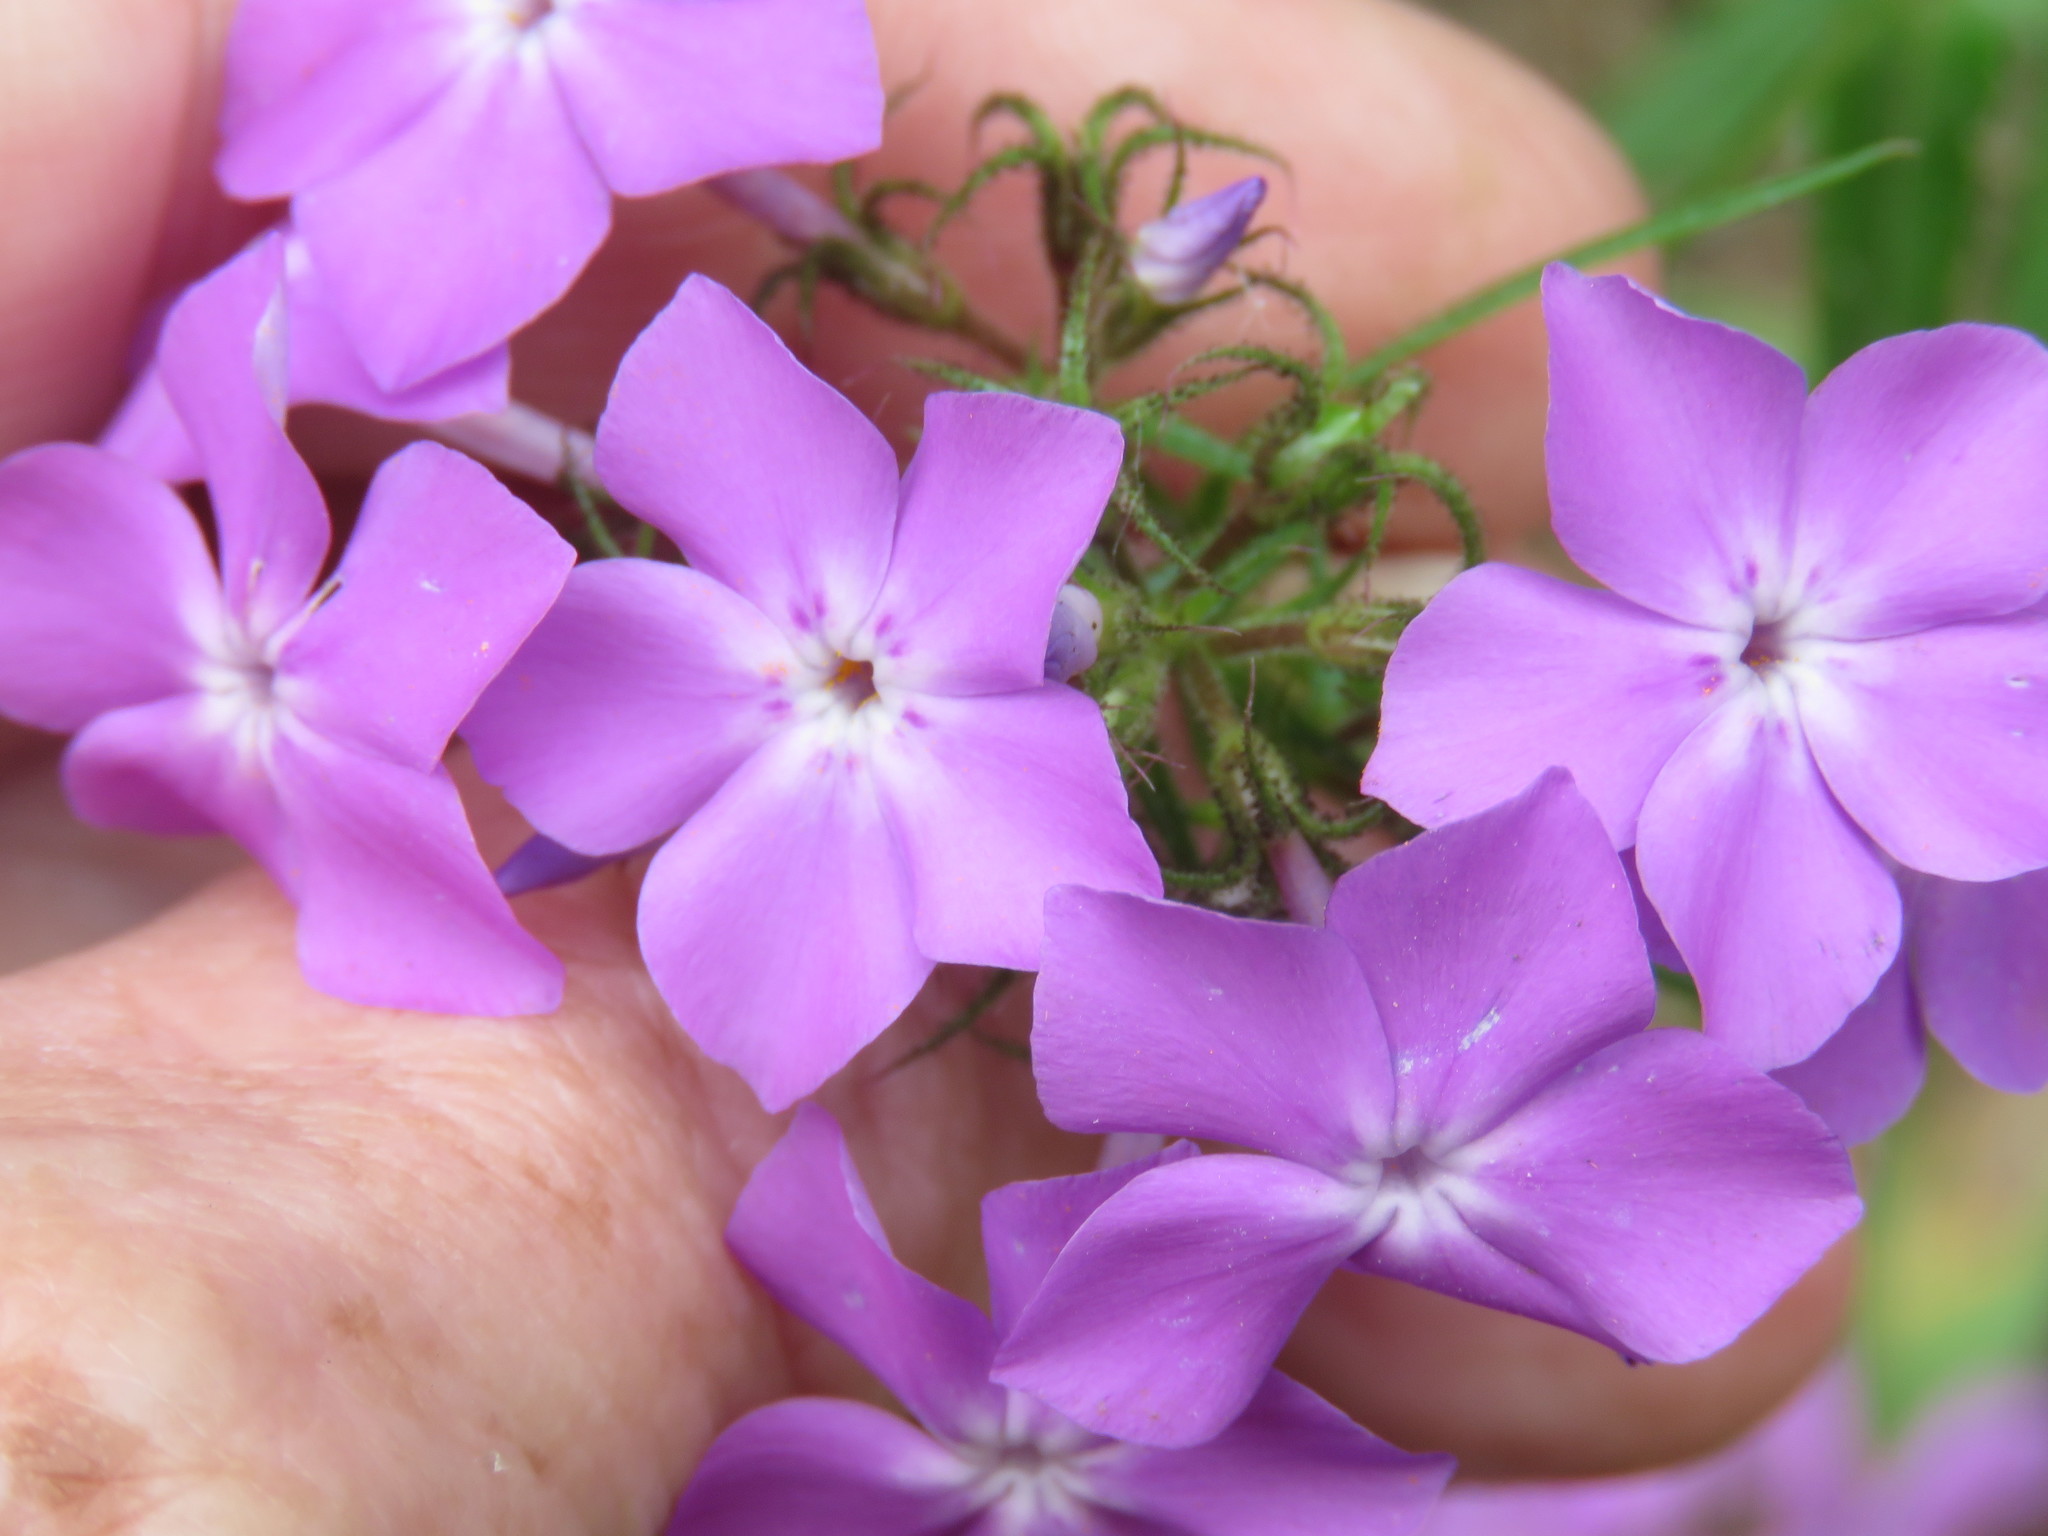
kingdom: Plantae
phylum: Tracheophyta
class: Magnoliopsida
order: Ericales
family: Polemoniaceae
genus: Phlox
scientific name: Phlox pilosa
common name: Prairie phlox
